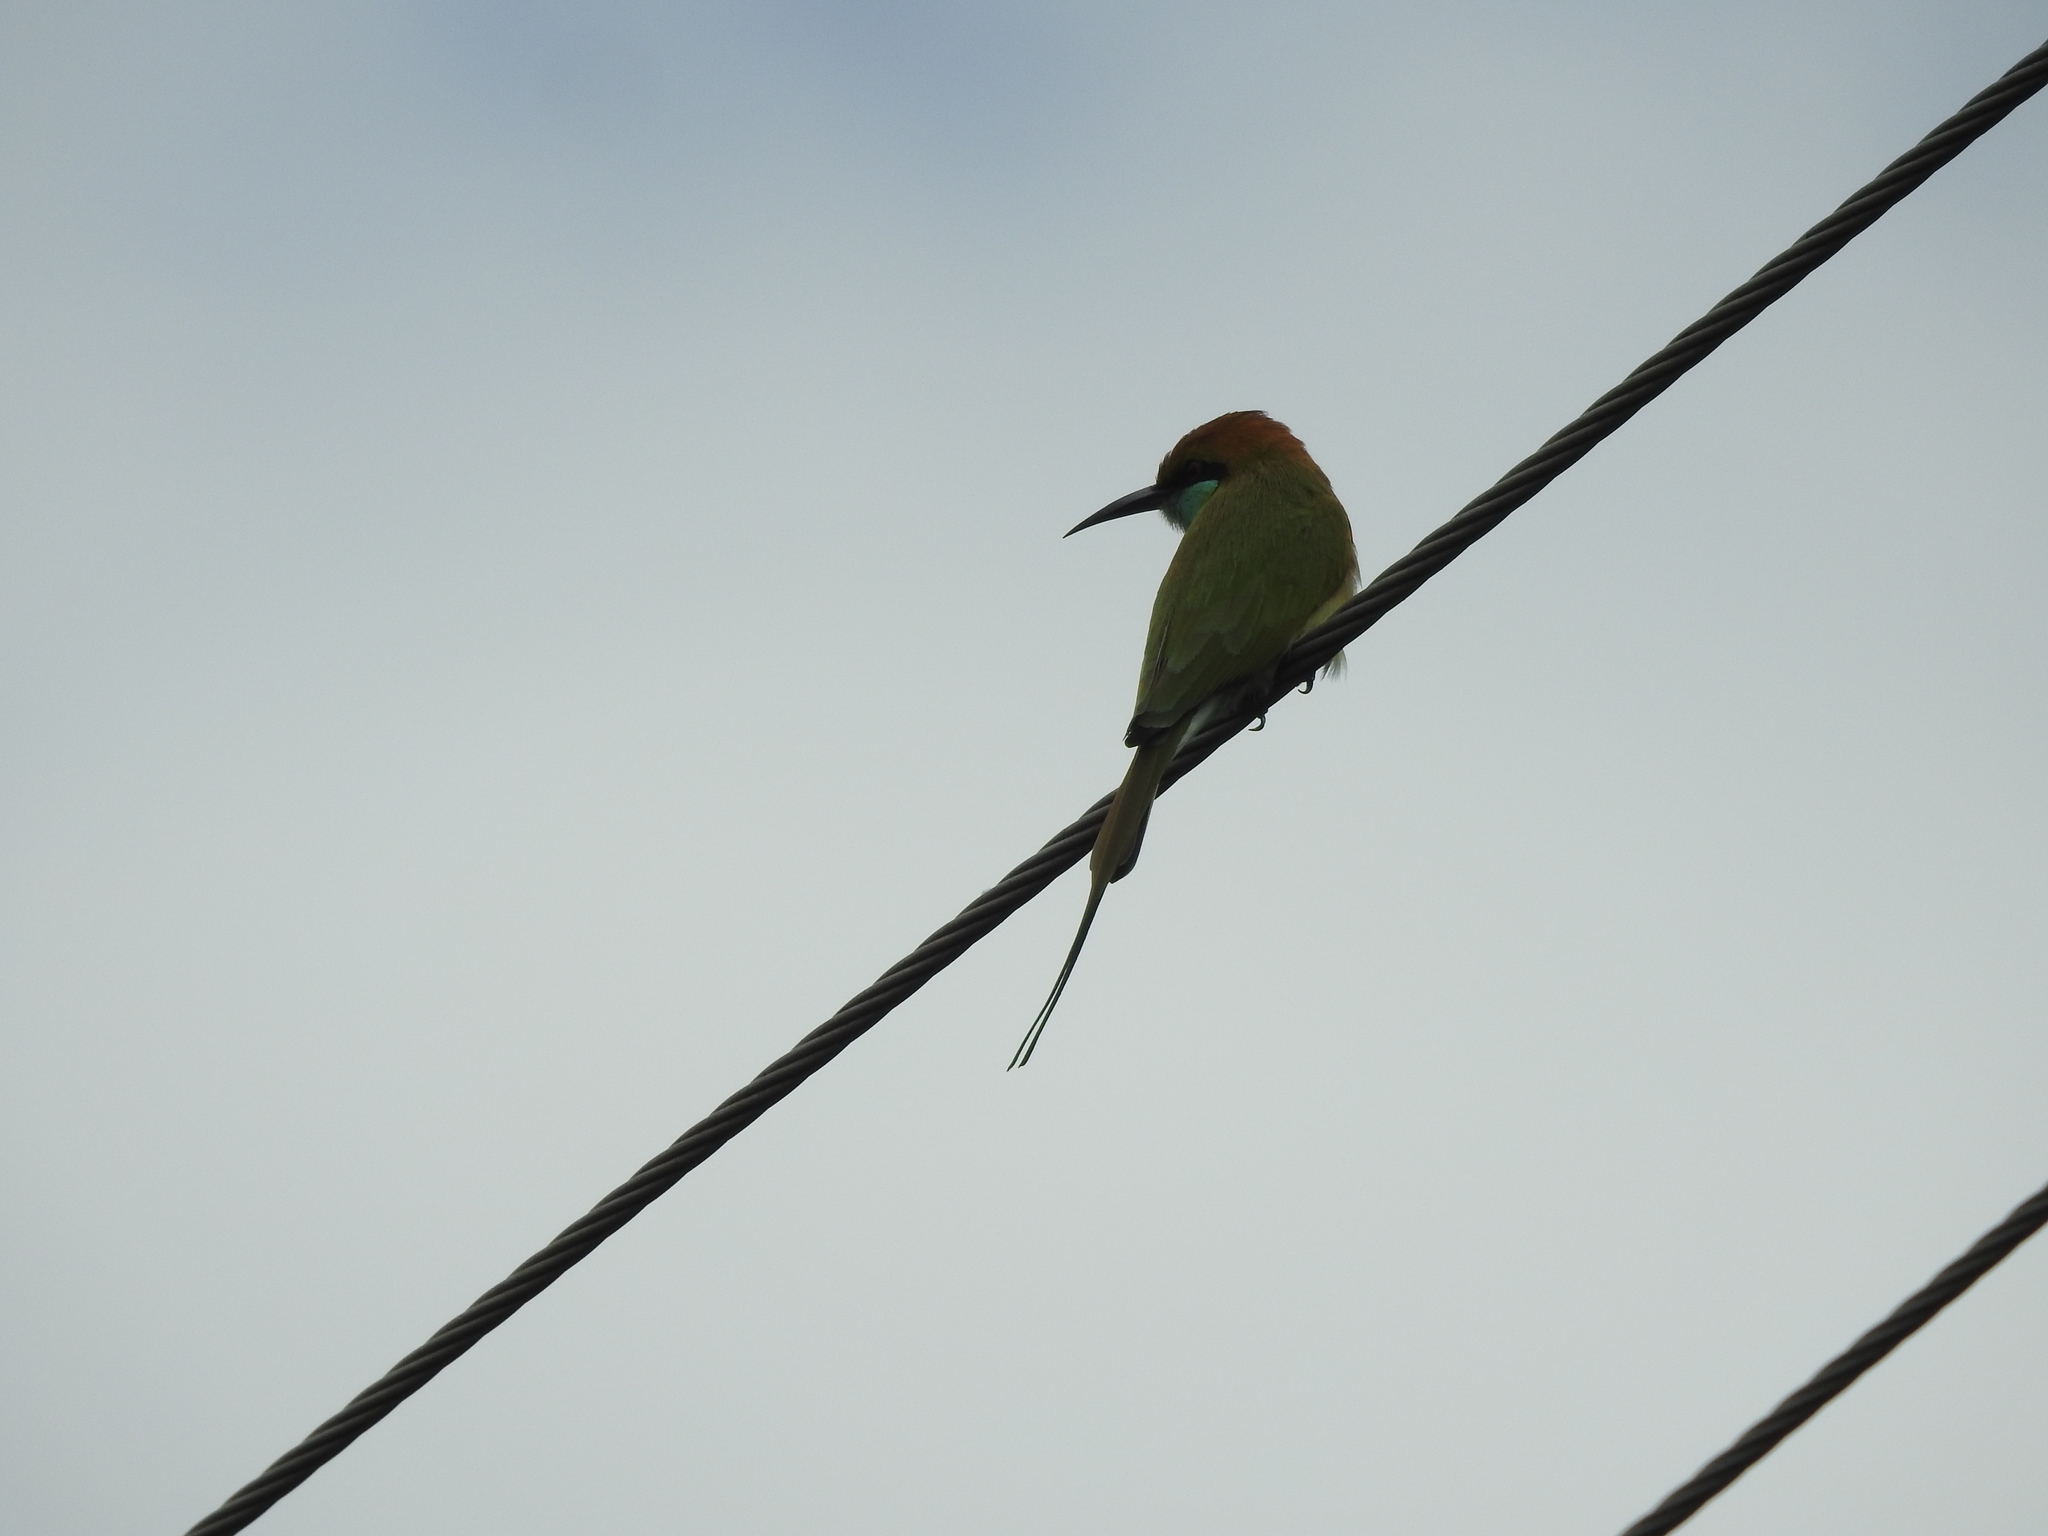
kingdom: Animalia
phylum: Chordata
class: Aves
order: Coraciiformes
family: Meropidae
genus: Merops
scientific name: Merops orientalis
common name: Green bee-eater
